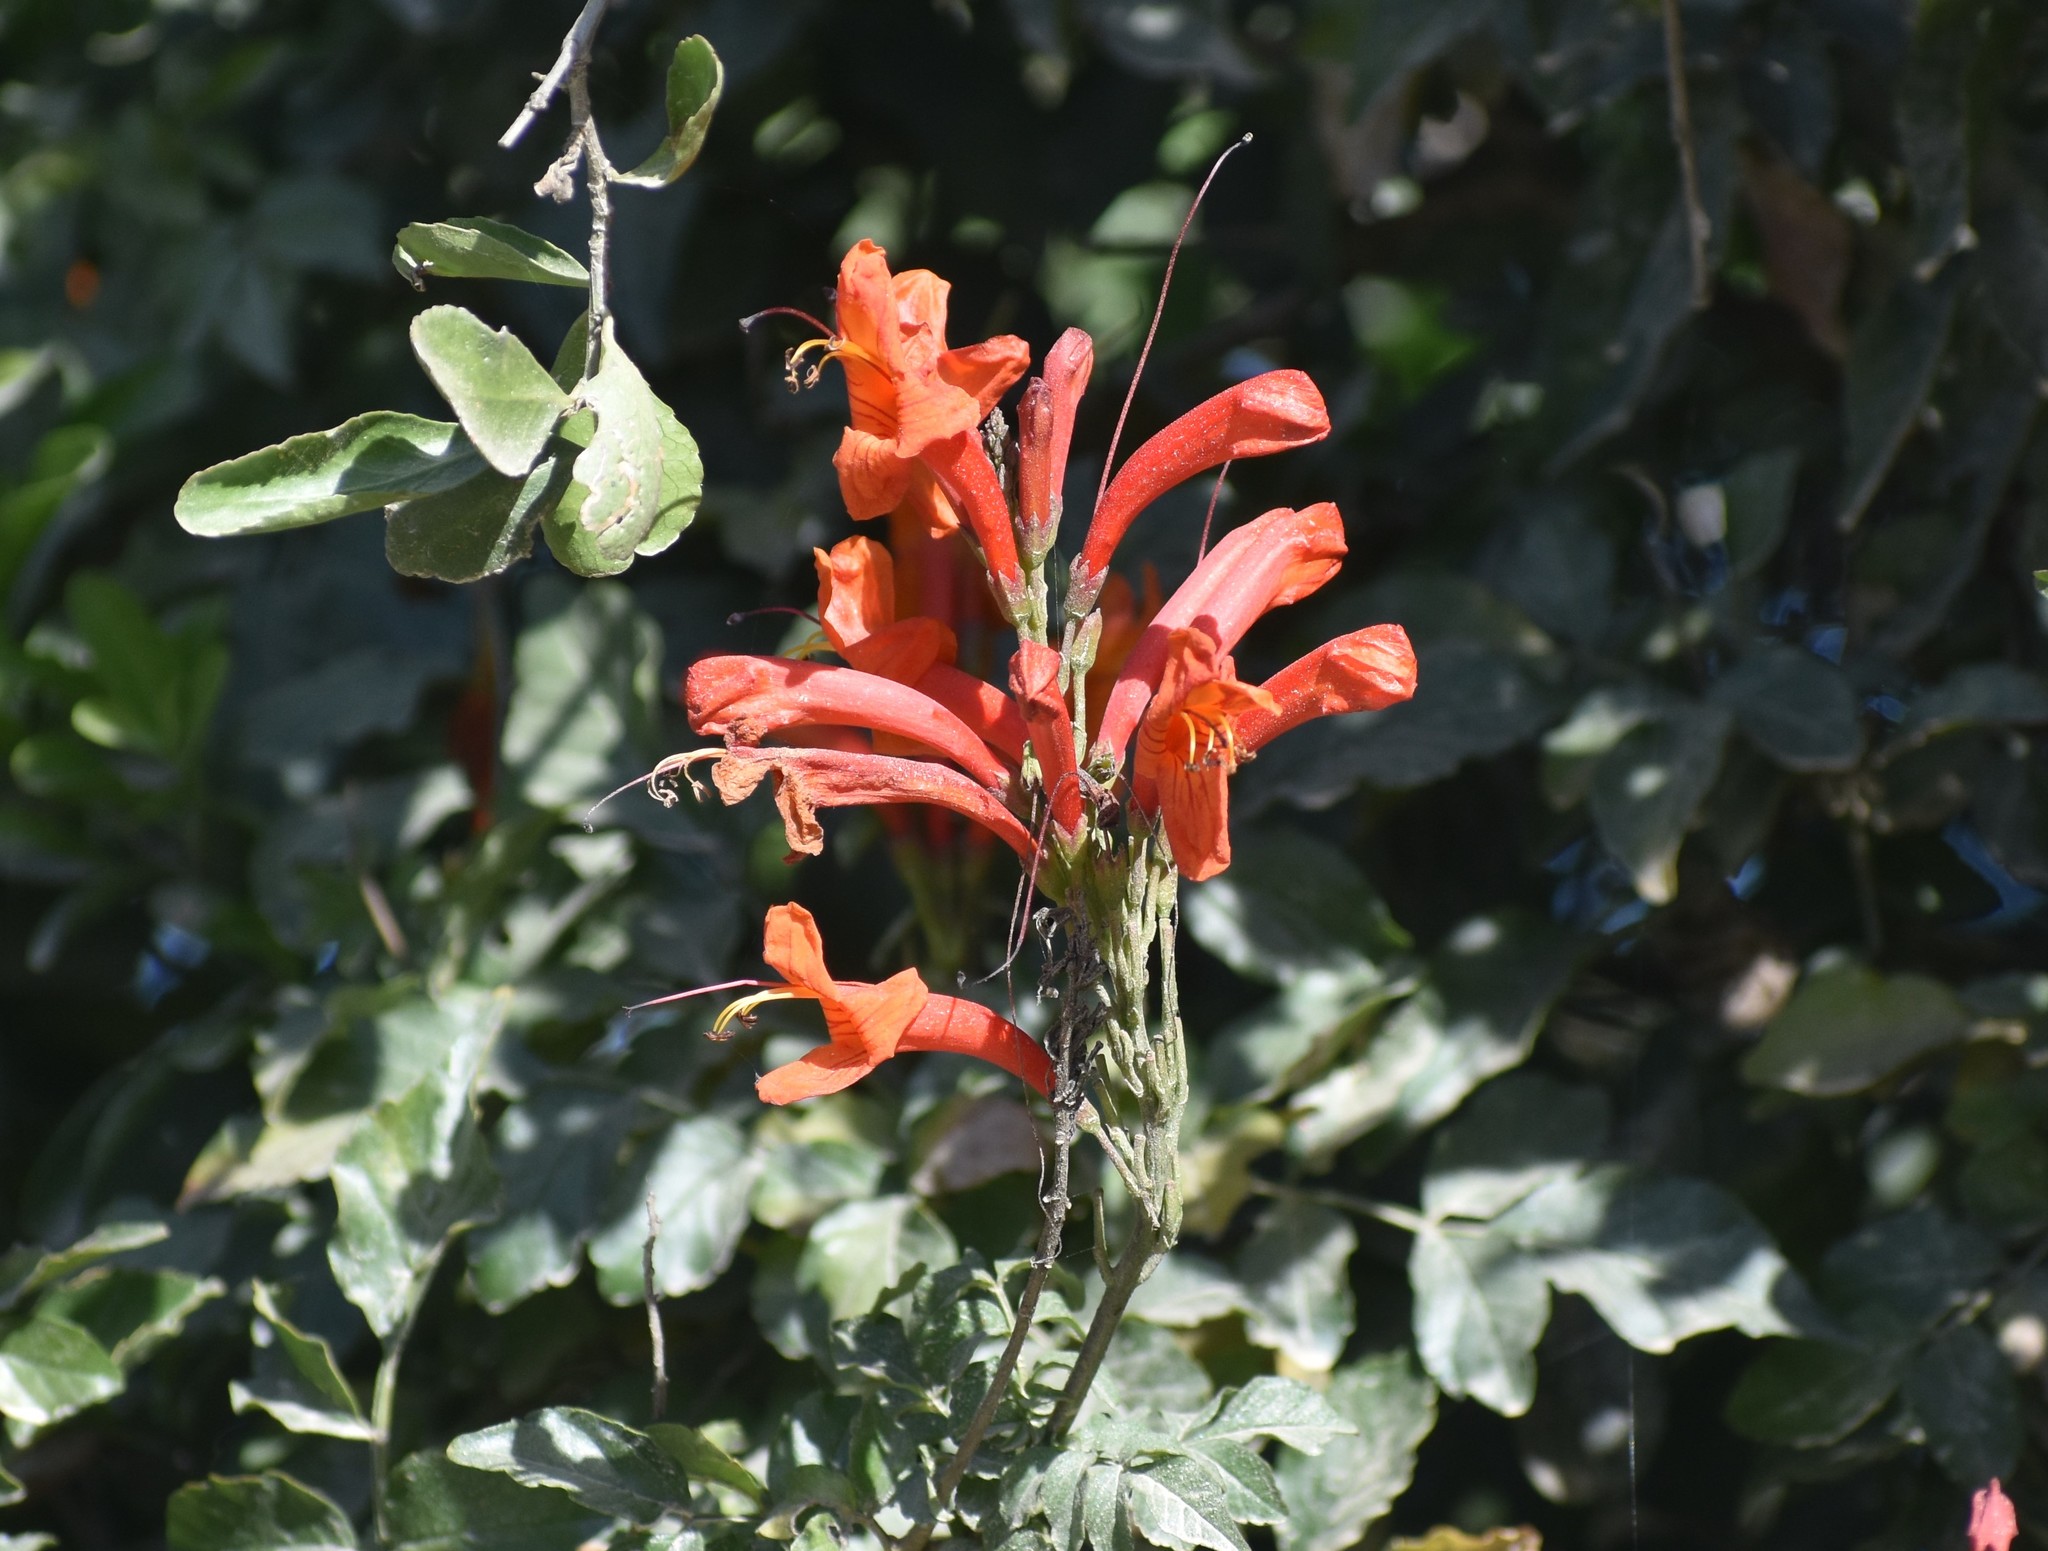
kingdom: Plantae
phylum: Tracheophyta
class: Magnoliopsida
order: Lamiales
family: Bignoniaceae
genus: Tecomaria
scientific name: Tecomaria capensis
